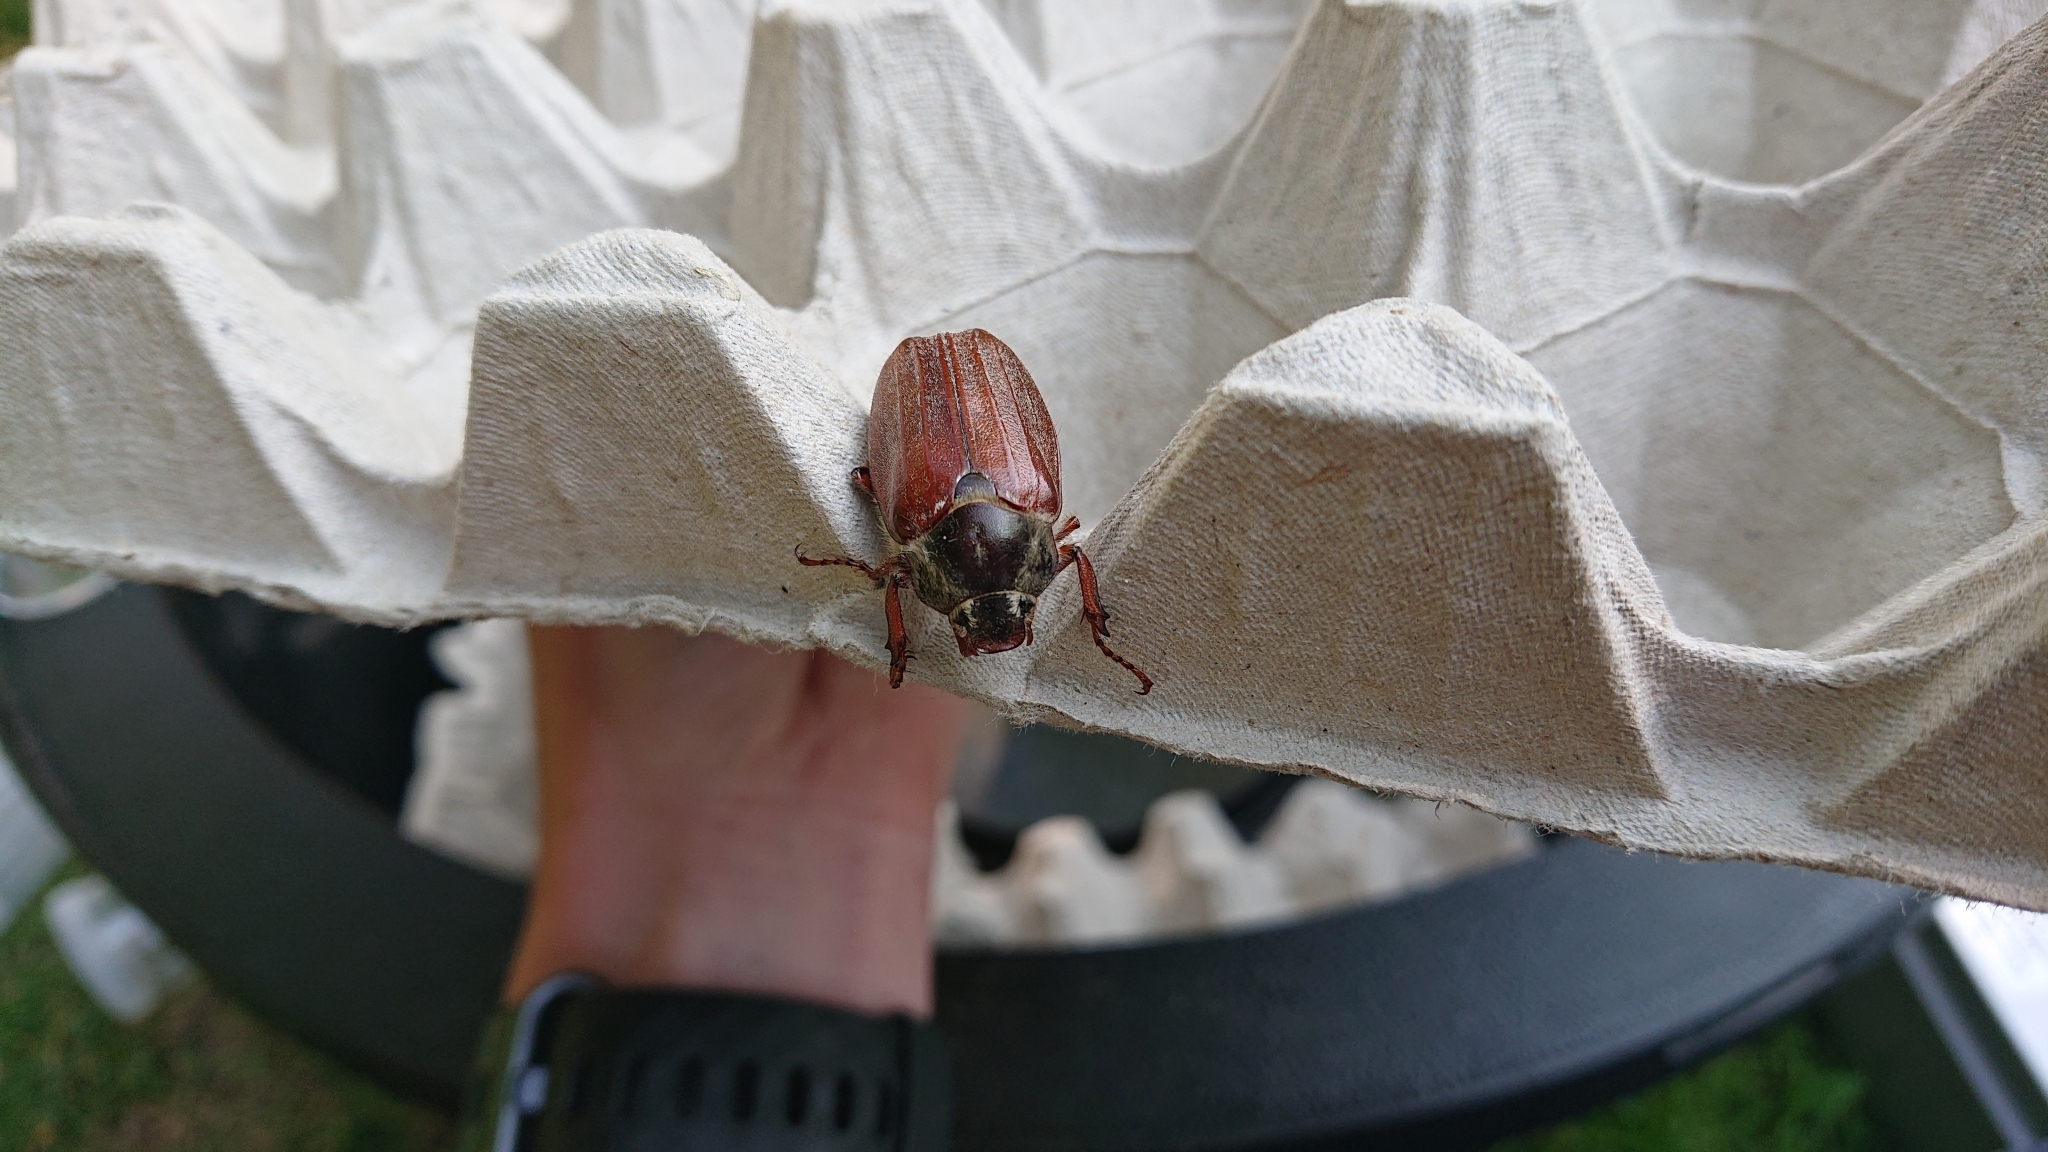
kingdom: Animalia
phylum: Arthropoda
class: Insecta
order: Coleoptera
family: Scarabaeidae
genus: Melolontha
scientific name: Melolontha melolontha
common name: Cockchafer maybeetle
